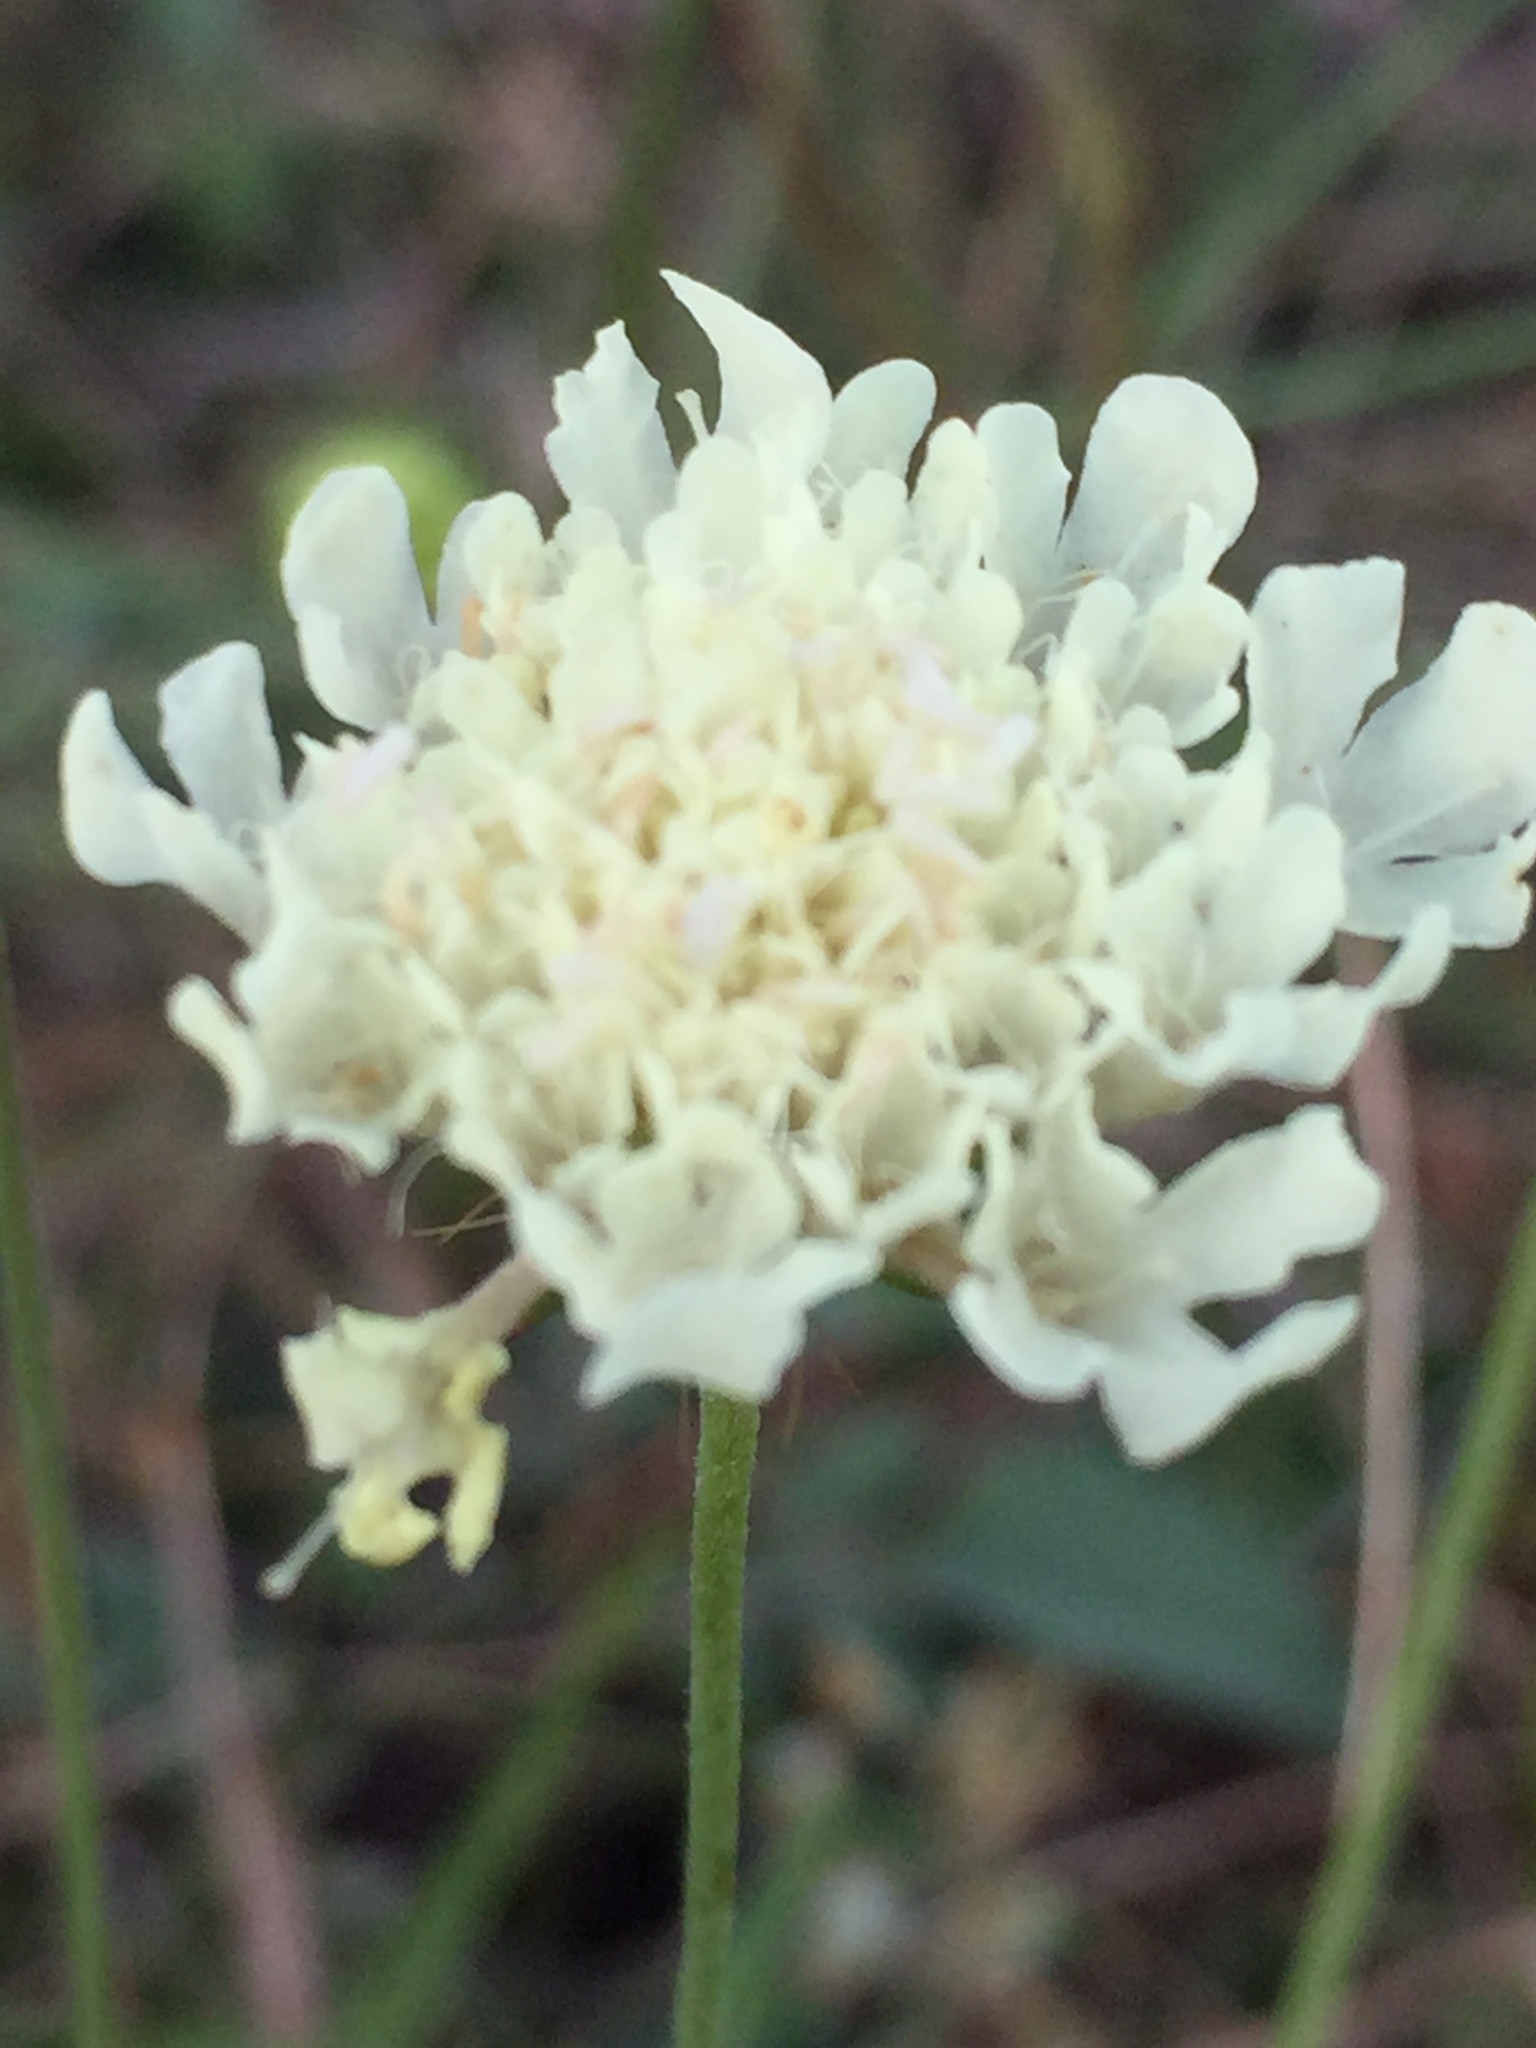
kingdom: Plantae
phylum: Tracheophyta
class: Magnoliopsida
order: Dipsacales
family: Caprifoliaceae
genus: Scabiosa
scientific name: Scabiosa ochroleuca
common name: Cream pincushions
